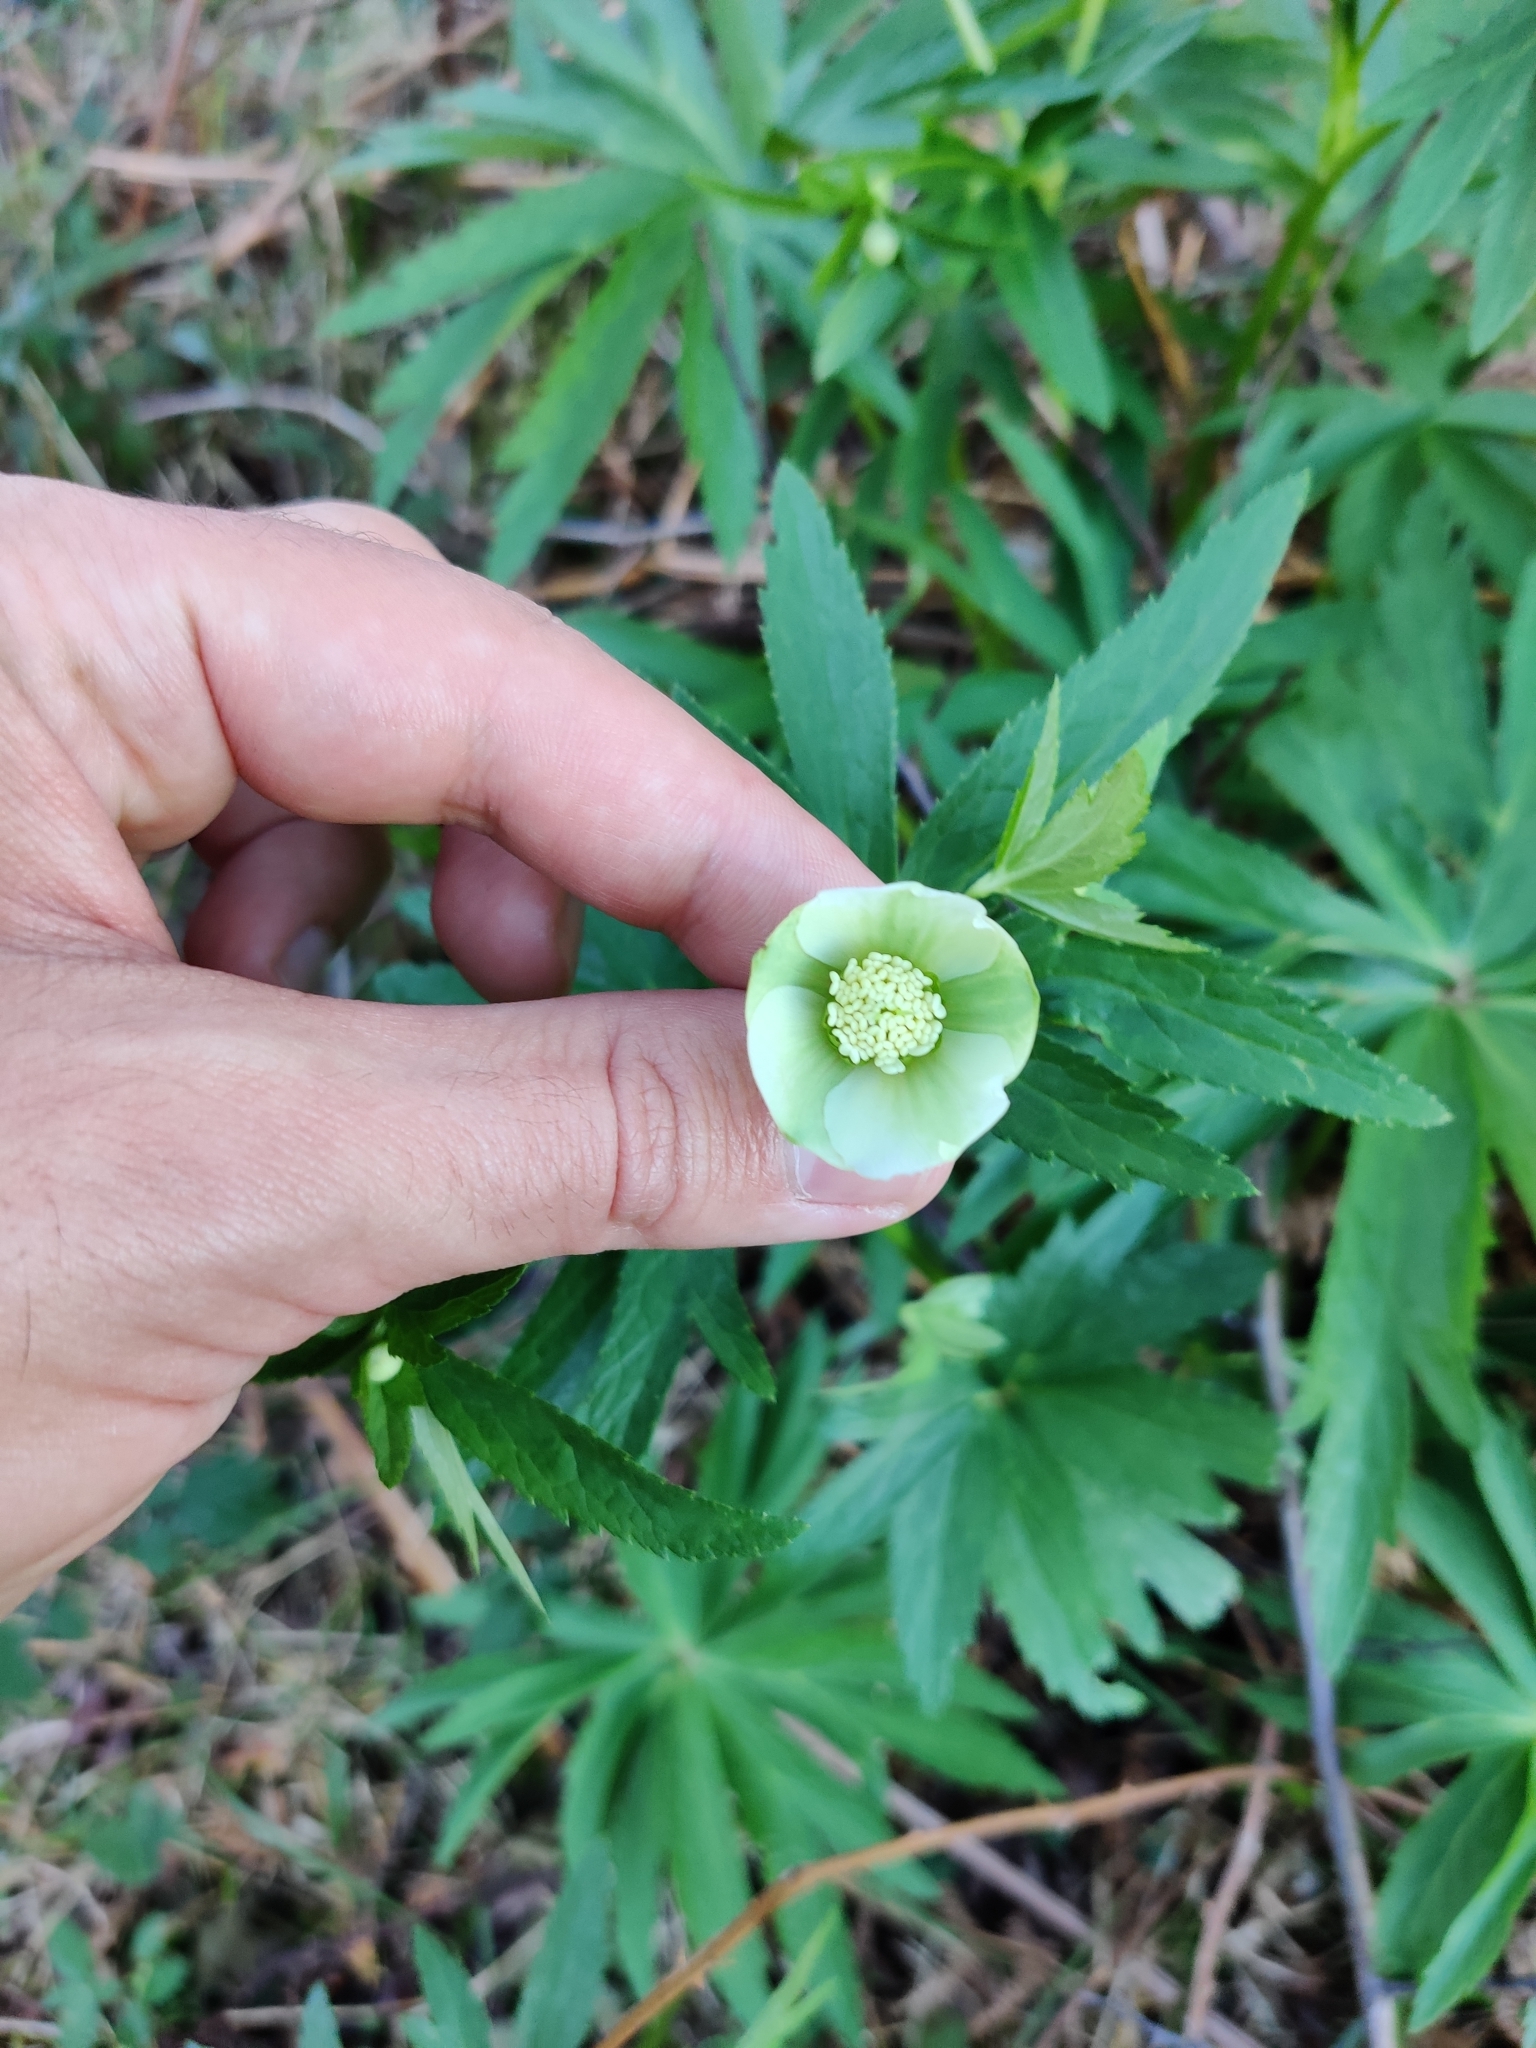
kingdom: Plantae
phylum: Tracheophyta
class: Magnoliopsida
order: Ranunculales
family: Ranunculaceae
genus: Helleborus
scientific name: Helleborus viridis
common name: Green hellebore
